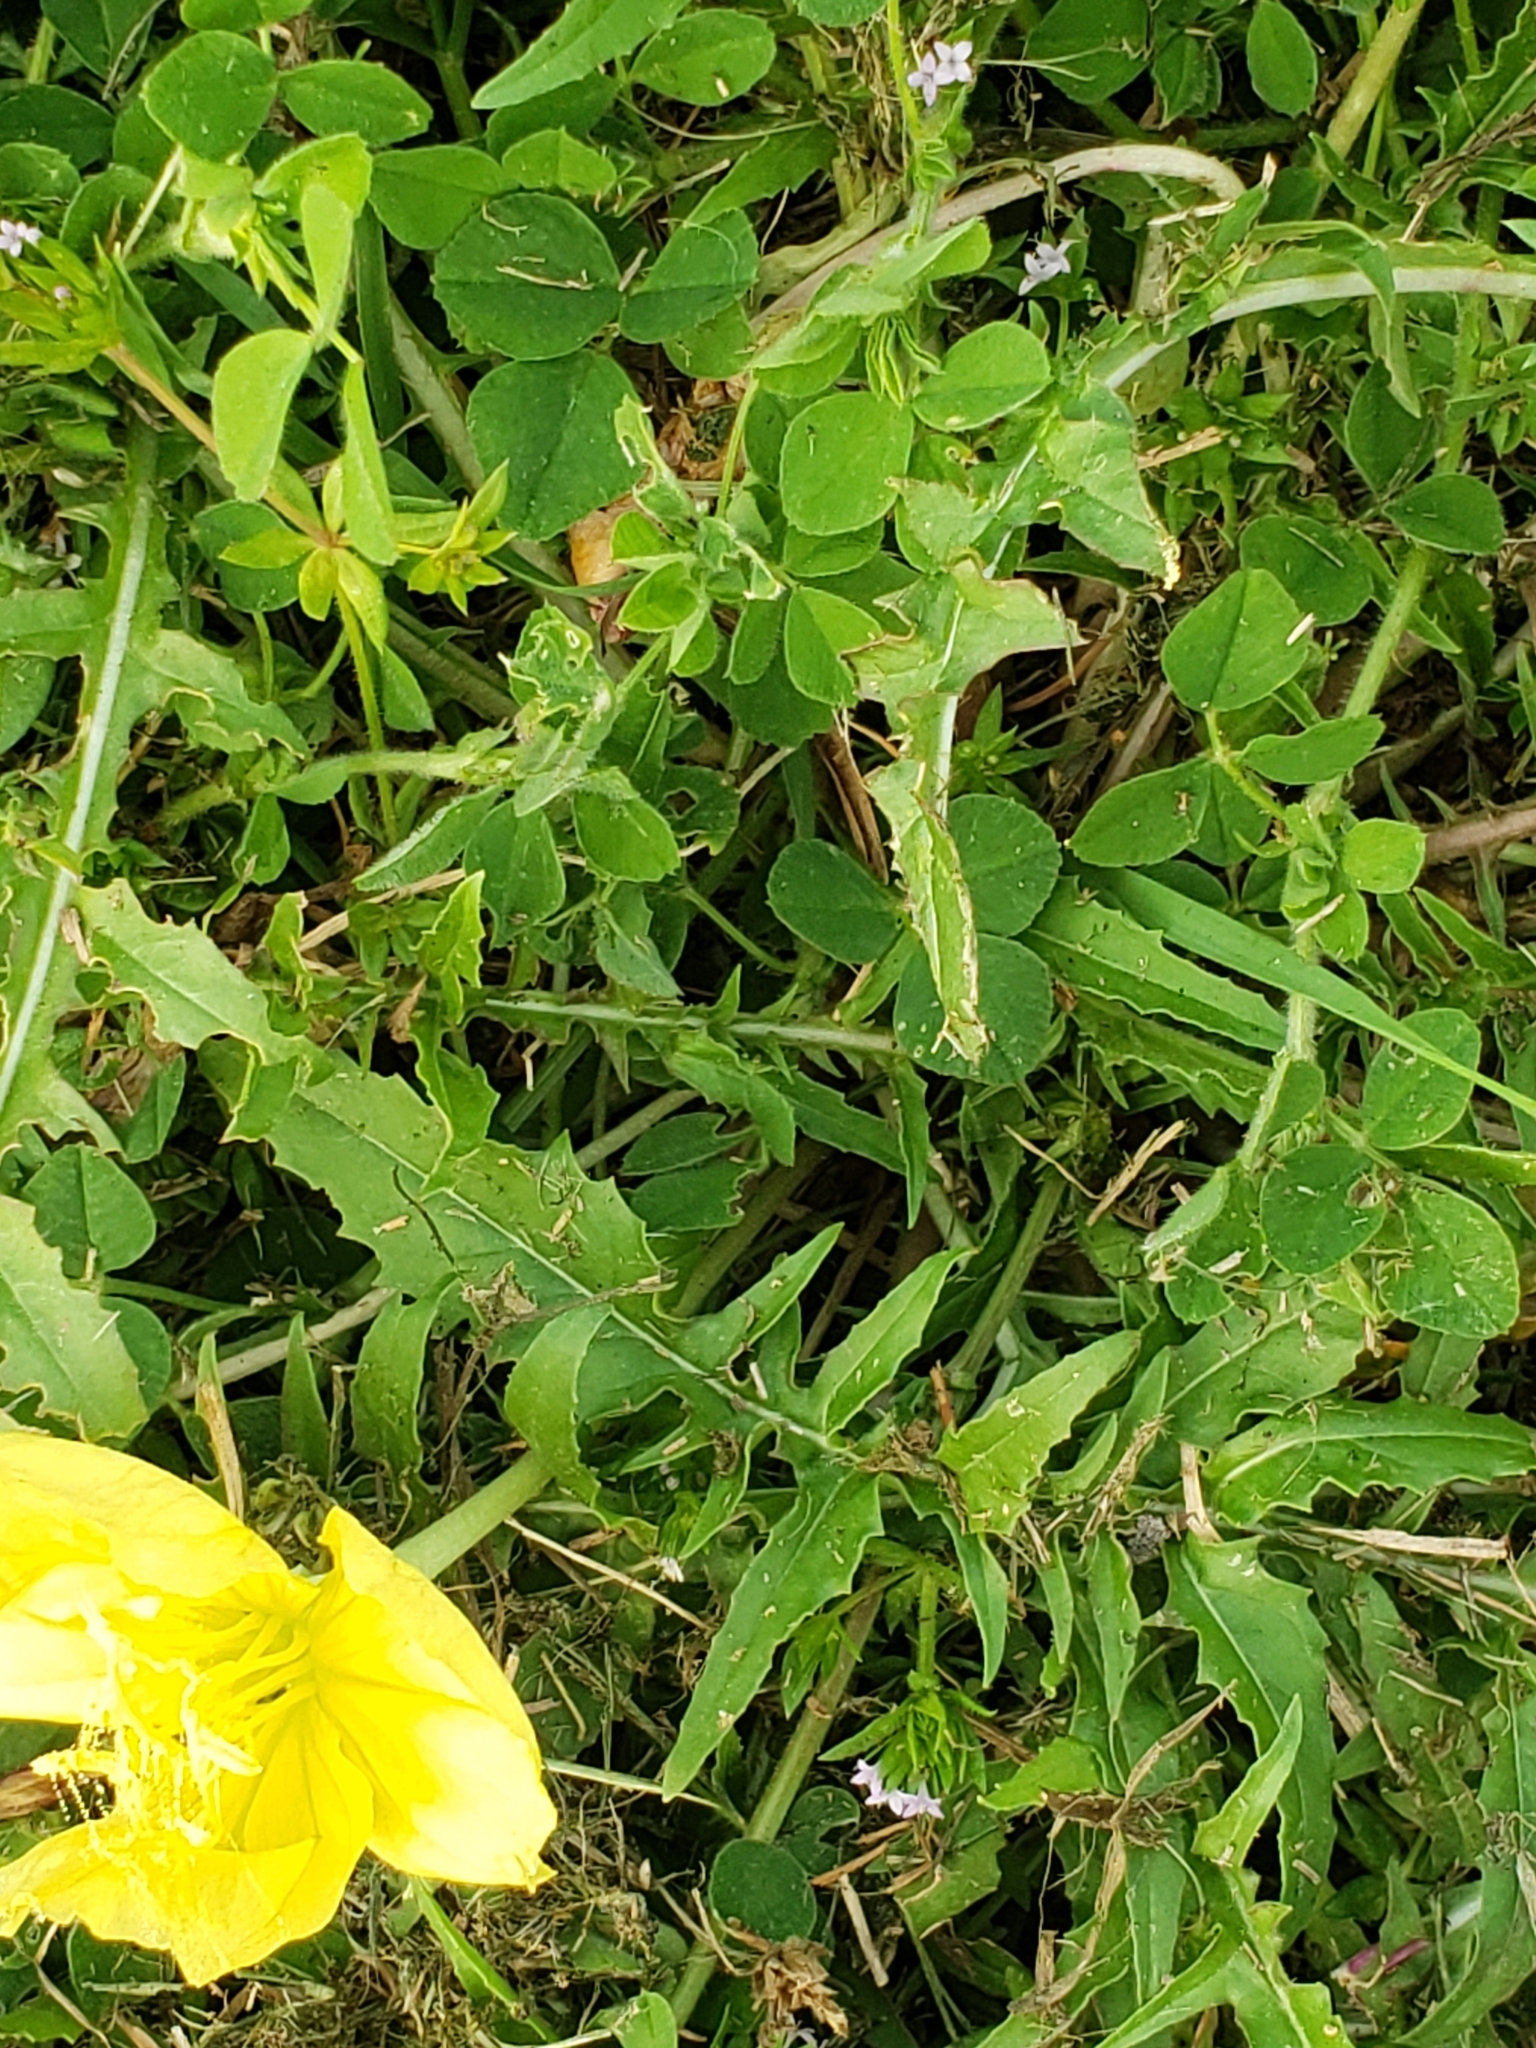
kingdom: Plantae
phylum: Tracheophyta
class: Magnoliopsida
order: Myrtales
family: Onagraceae
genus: Oenothera
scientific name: Oenothera triloba
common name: Sessile evening-primrose
